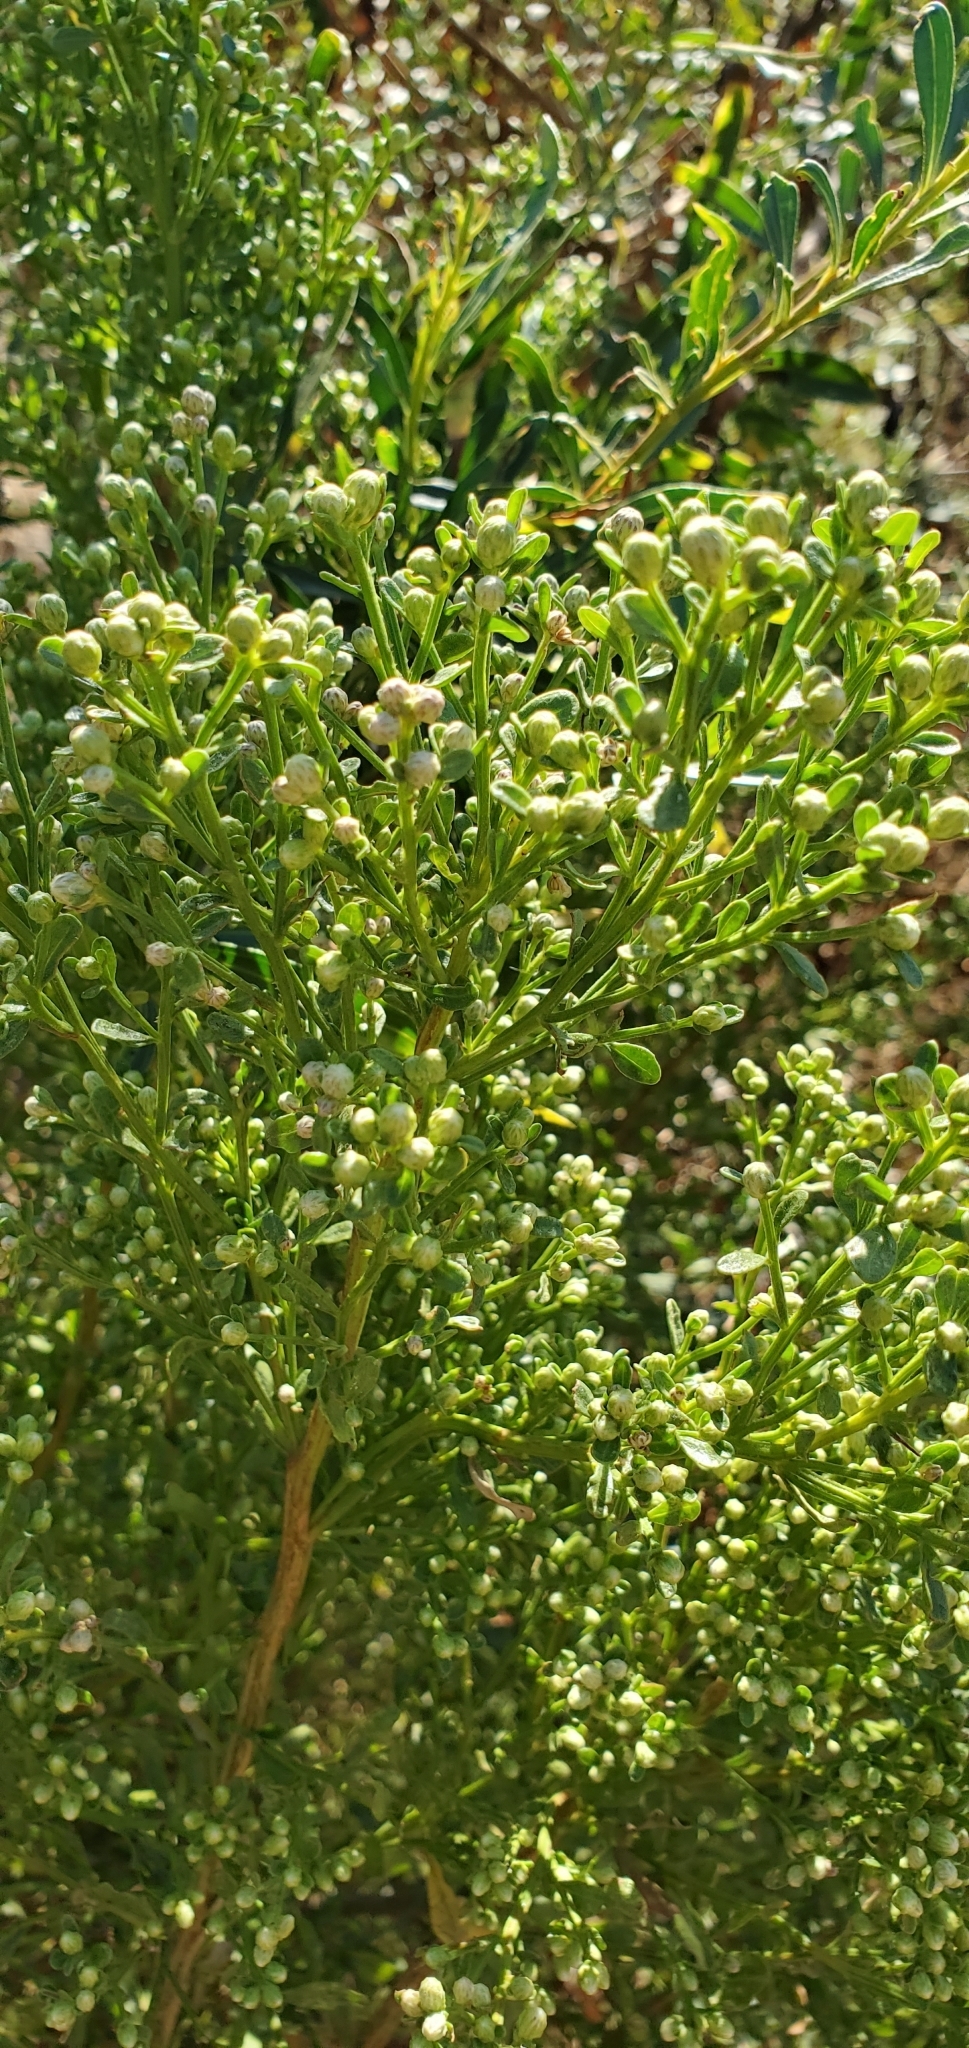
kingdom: Plantae
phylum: Tracheophyta
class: Magnoliopsida
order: Asterales
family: Asteraceae
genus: Baccharis
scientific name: Baccharis pilularis
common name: Coyotebrush
